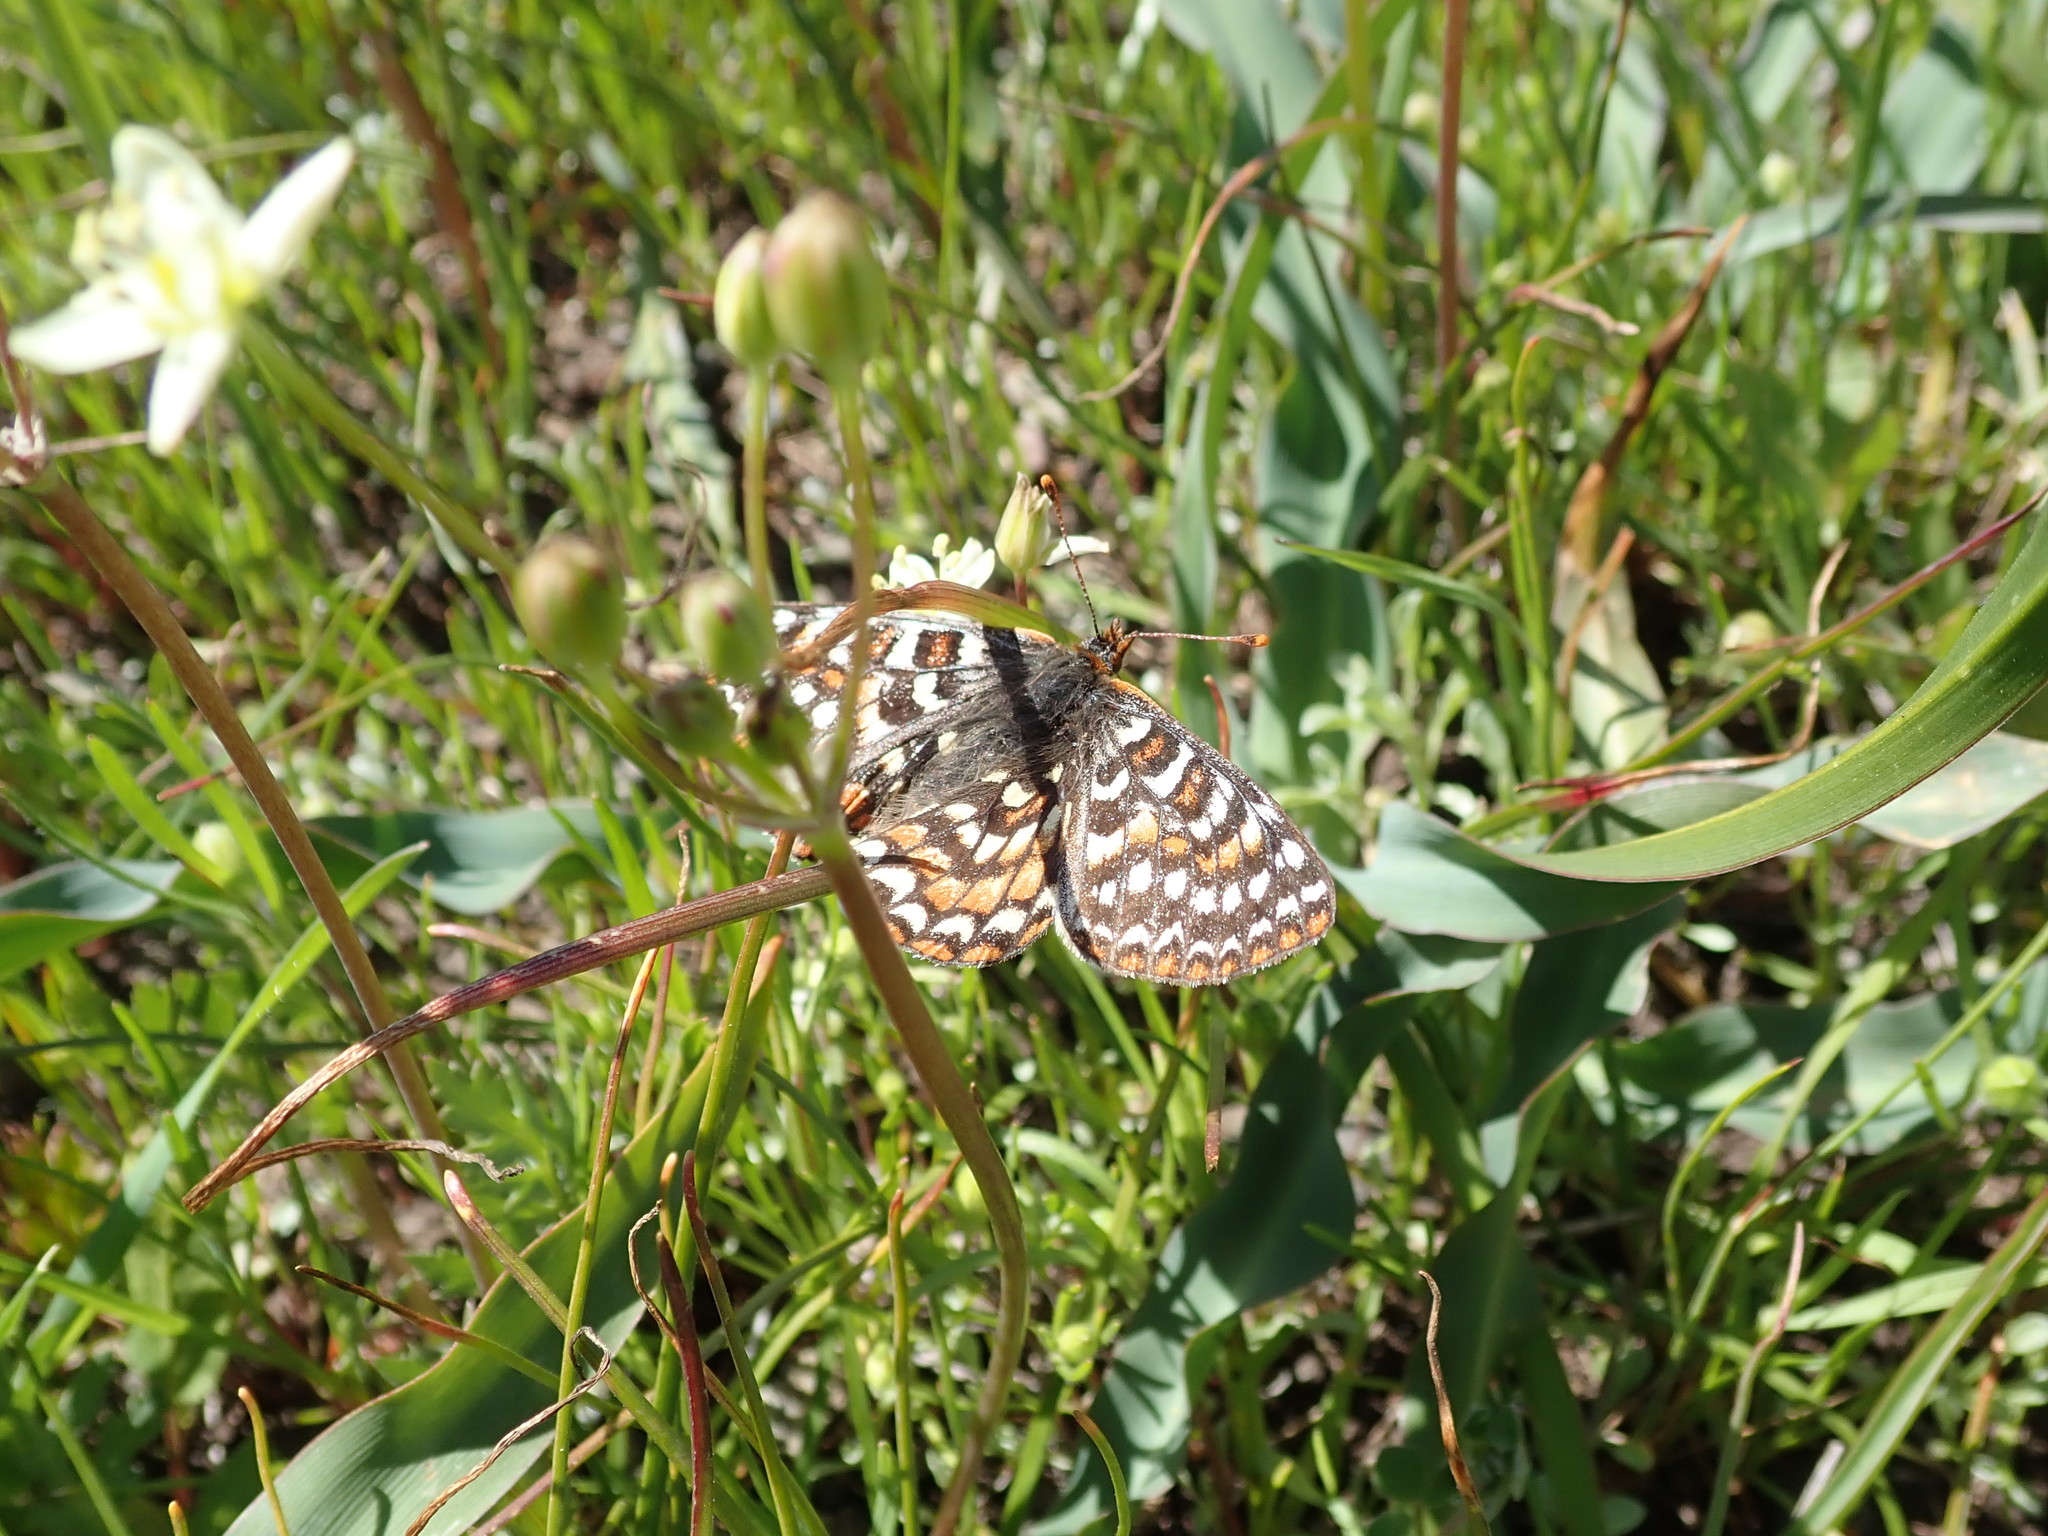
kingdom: Animalia
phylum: Arthropoda
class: Insecta
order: Lepidoptera
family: Nymphalidae
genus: Occidryas
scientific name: Occidryas editha
